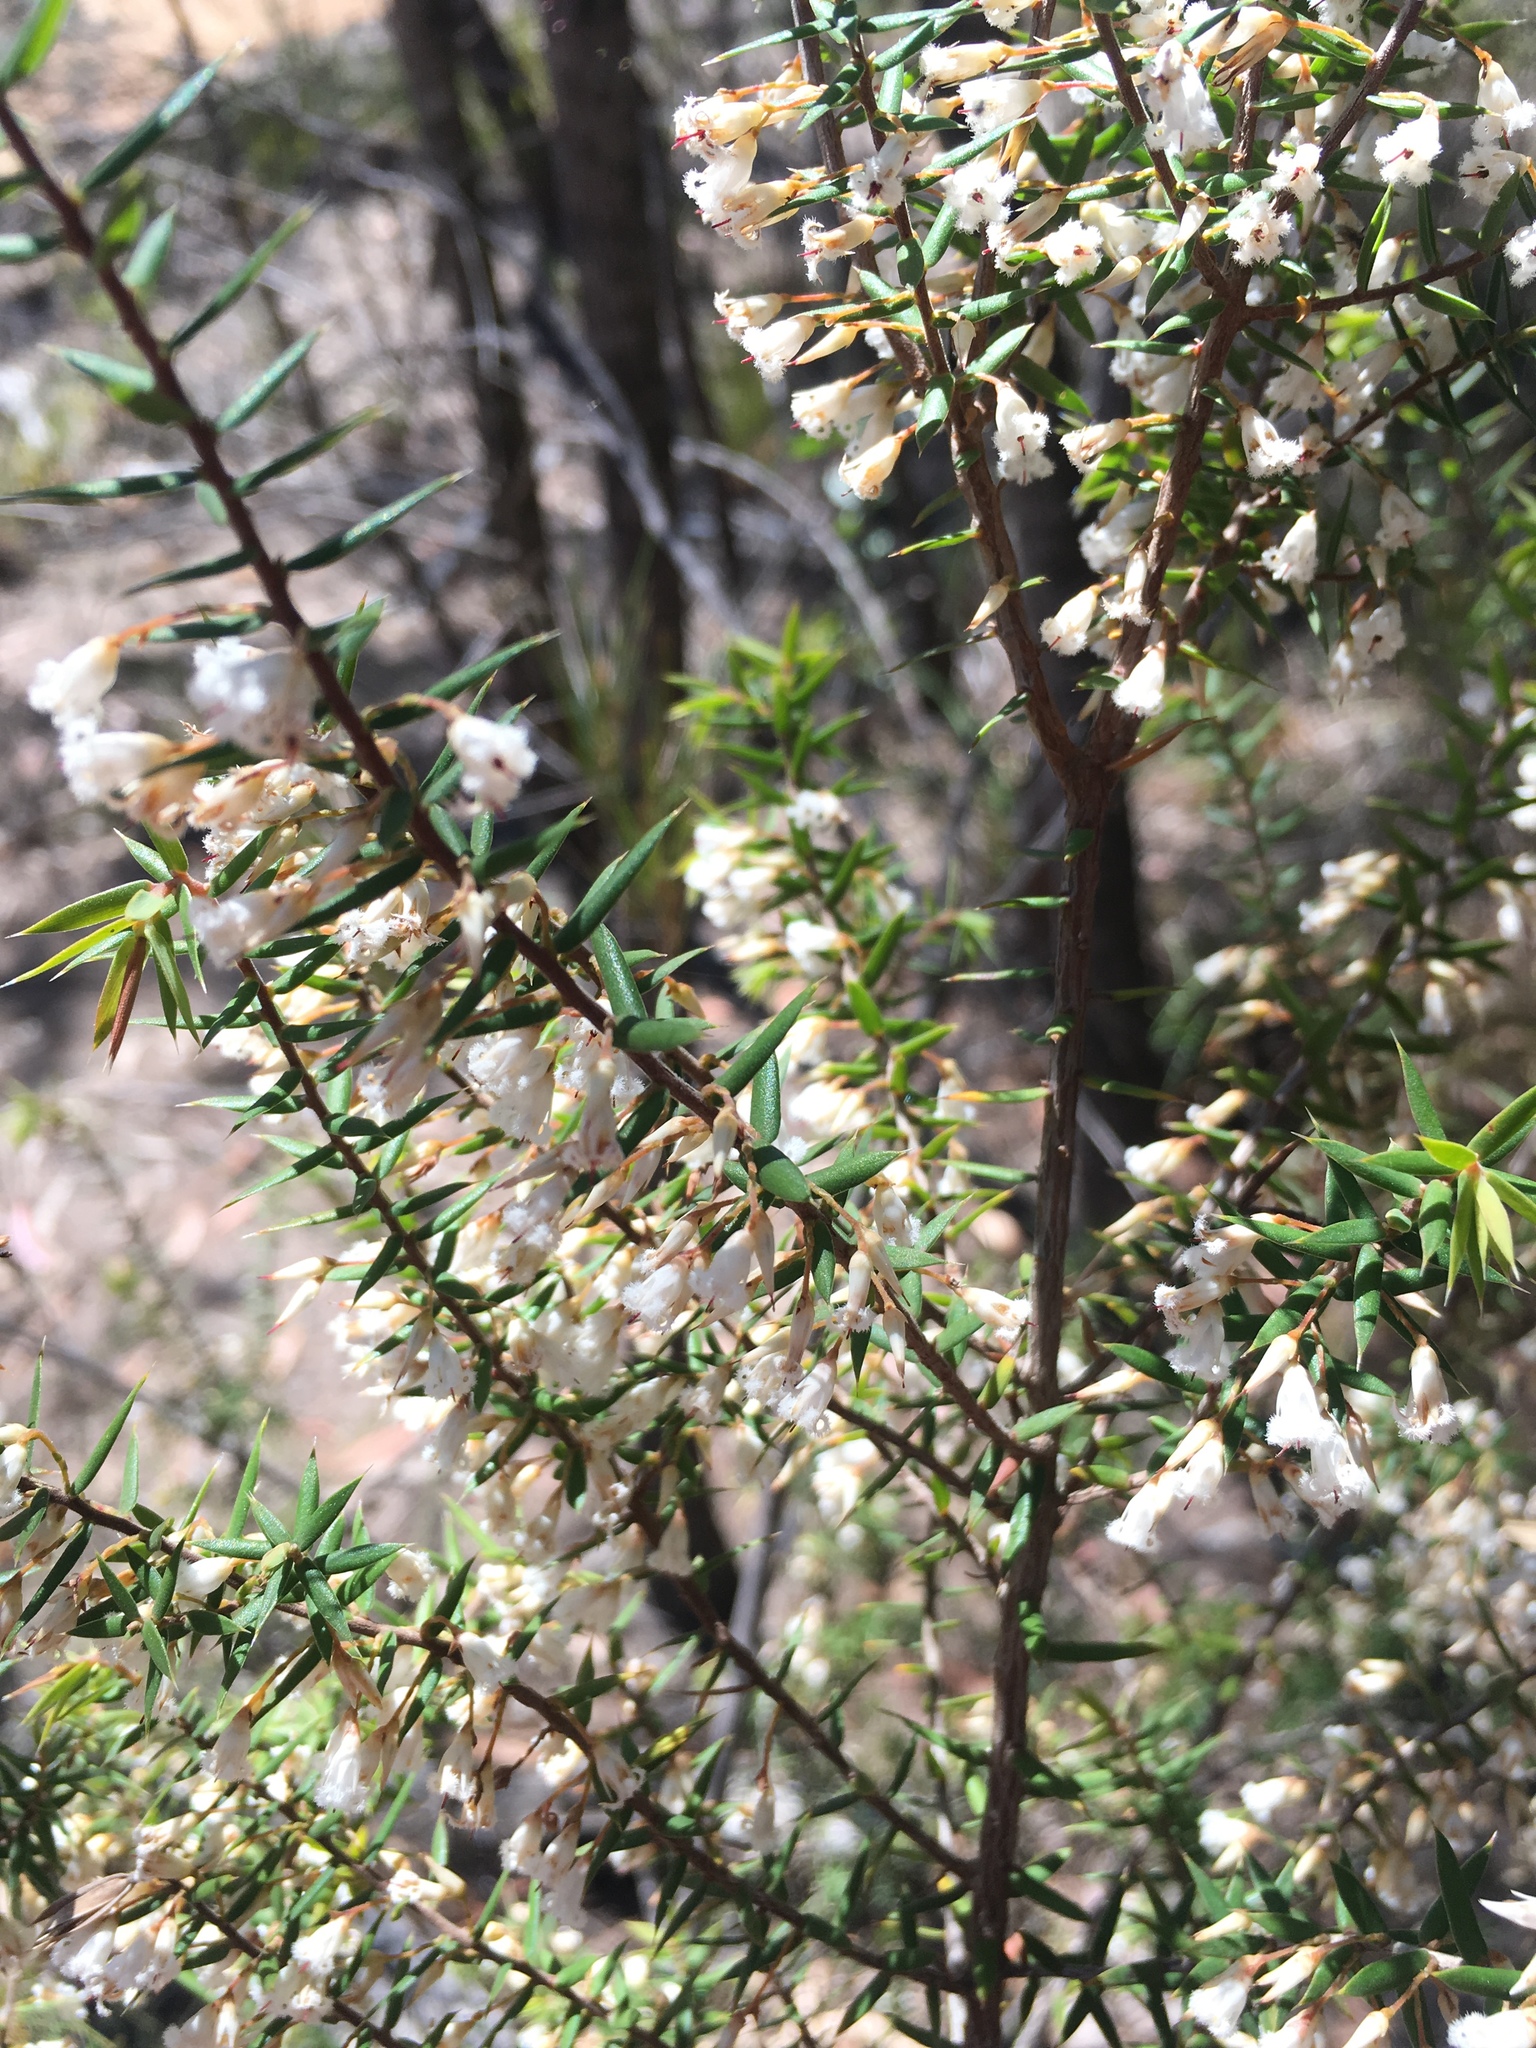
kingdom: Plantae
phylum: Tracheophyta
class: Magnoliopsida
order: Ericales
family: Ericaceae
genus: Styphelia
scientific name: Styphelia setigera
